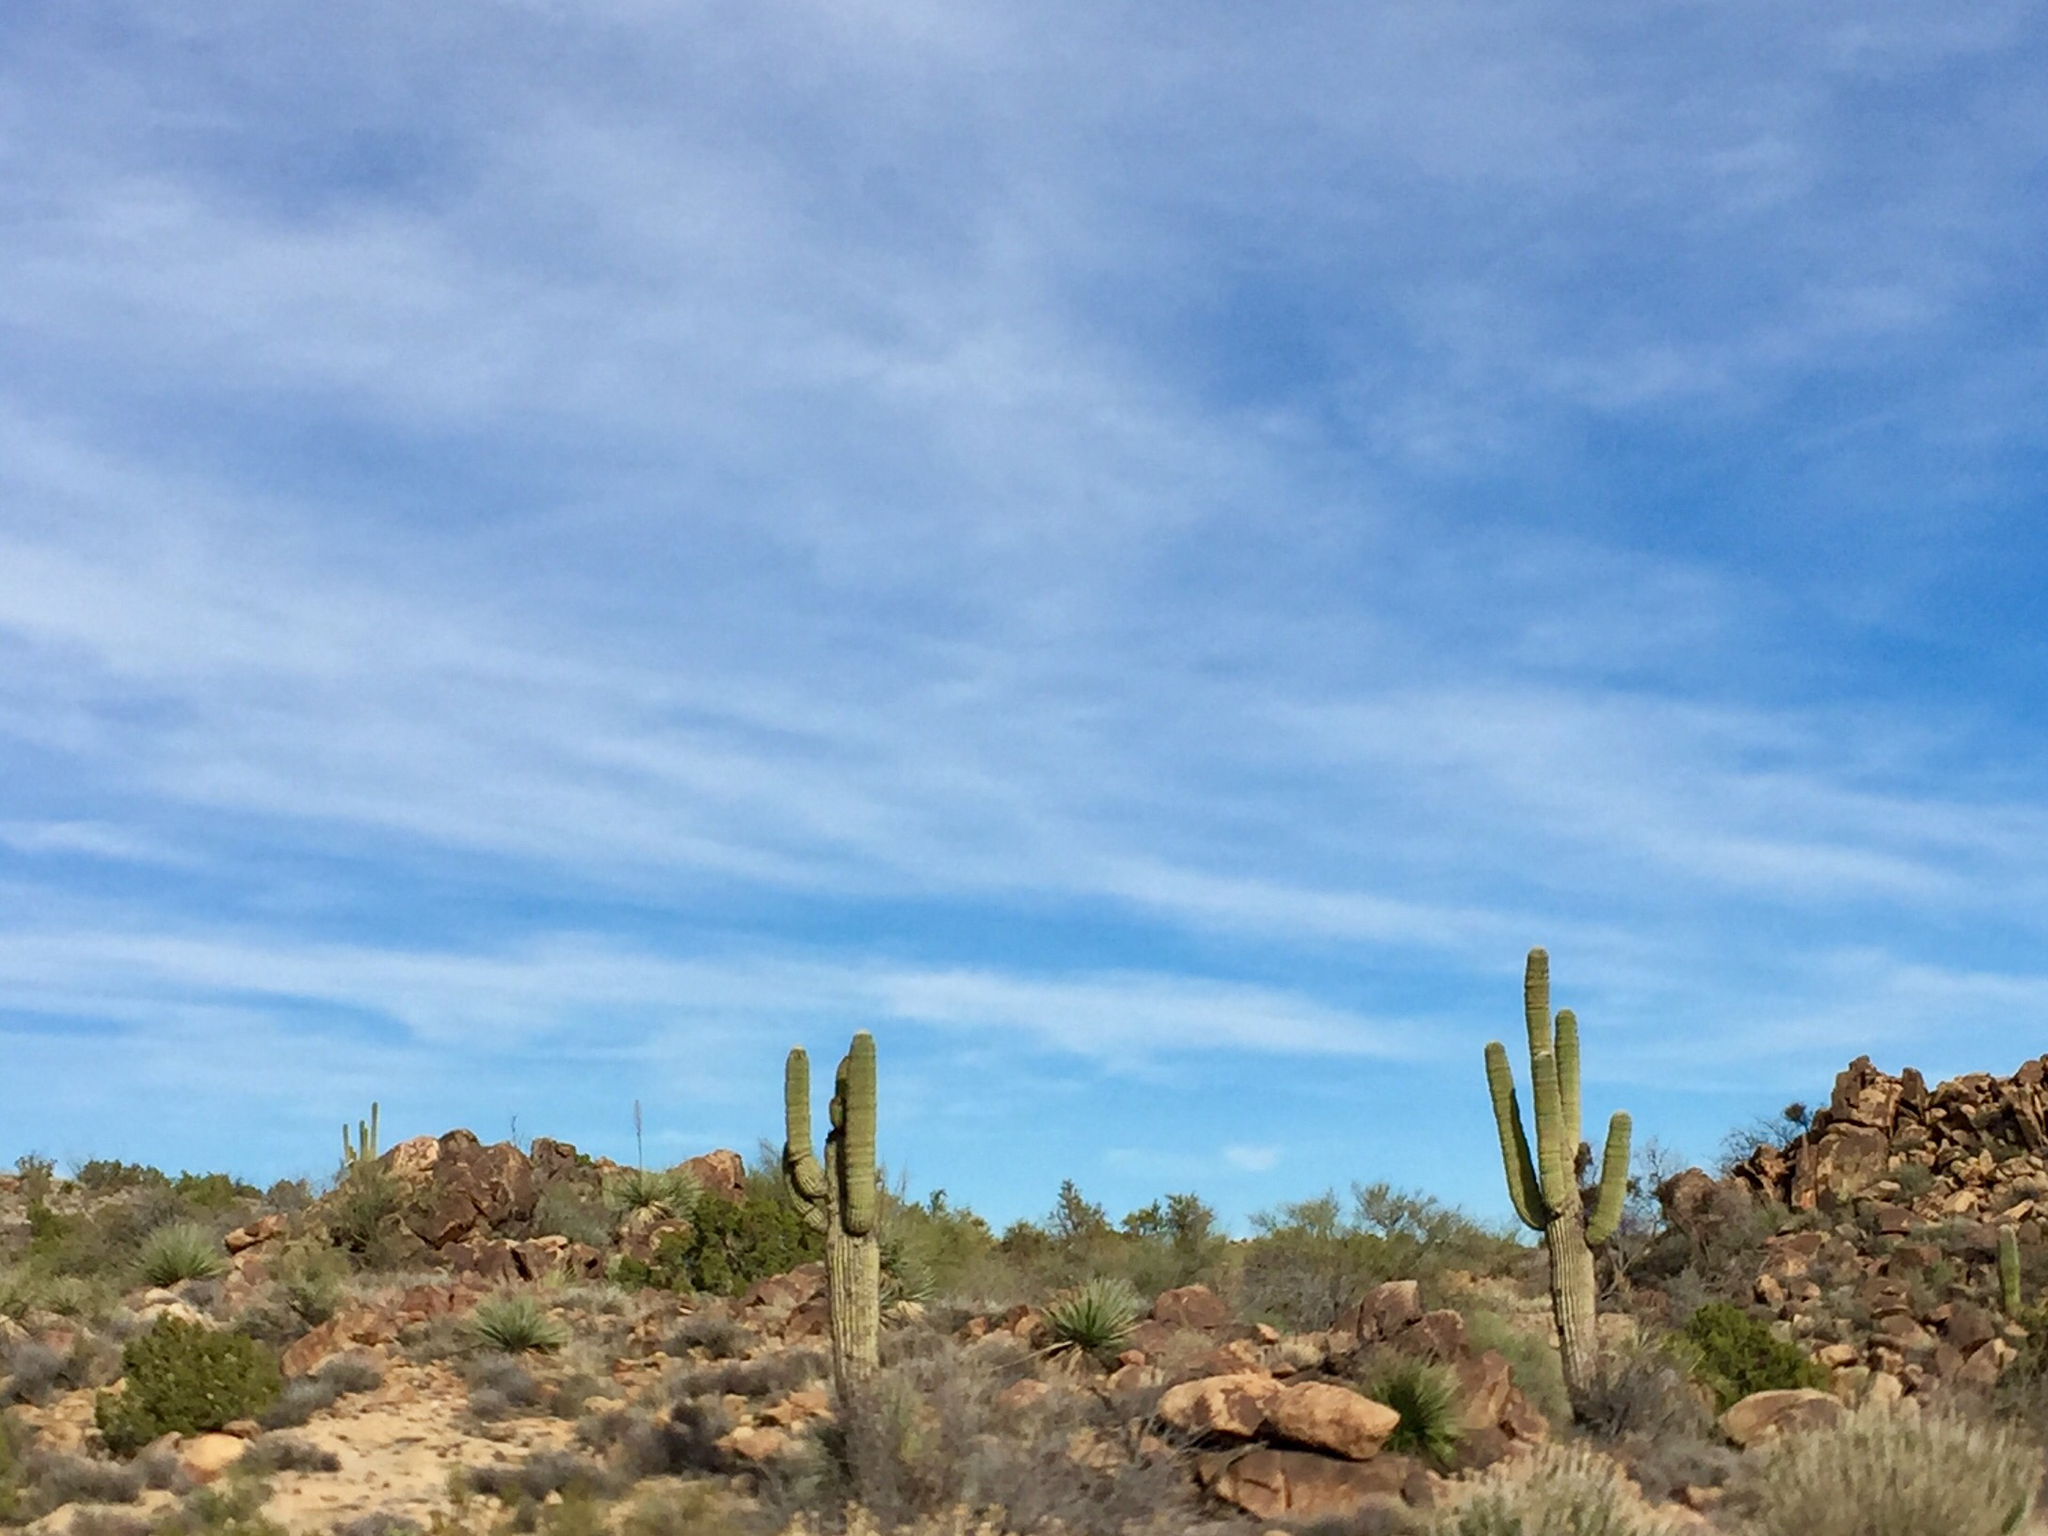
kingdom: Plantae
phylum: Tracheophyta
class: Magnoliopsida
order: Caryophyllales
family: Cactaceae
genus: Carnegiea
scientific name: Carnegiea gigantea
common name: Saguaro
